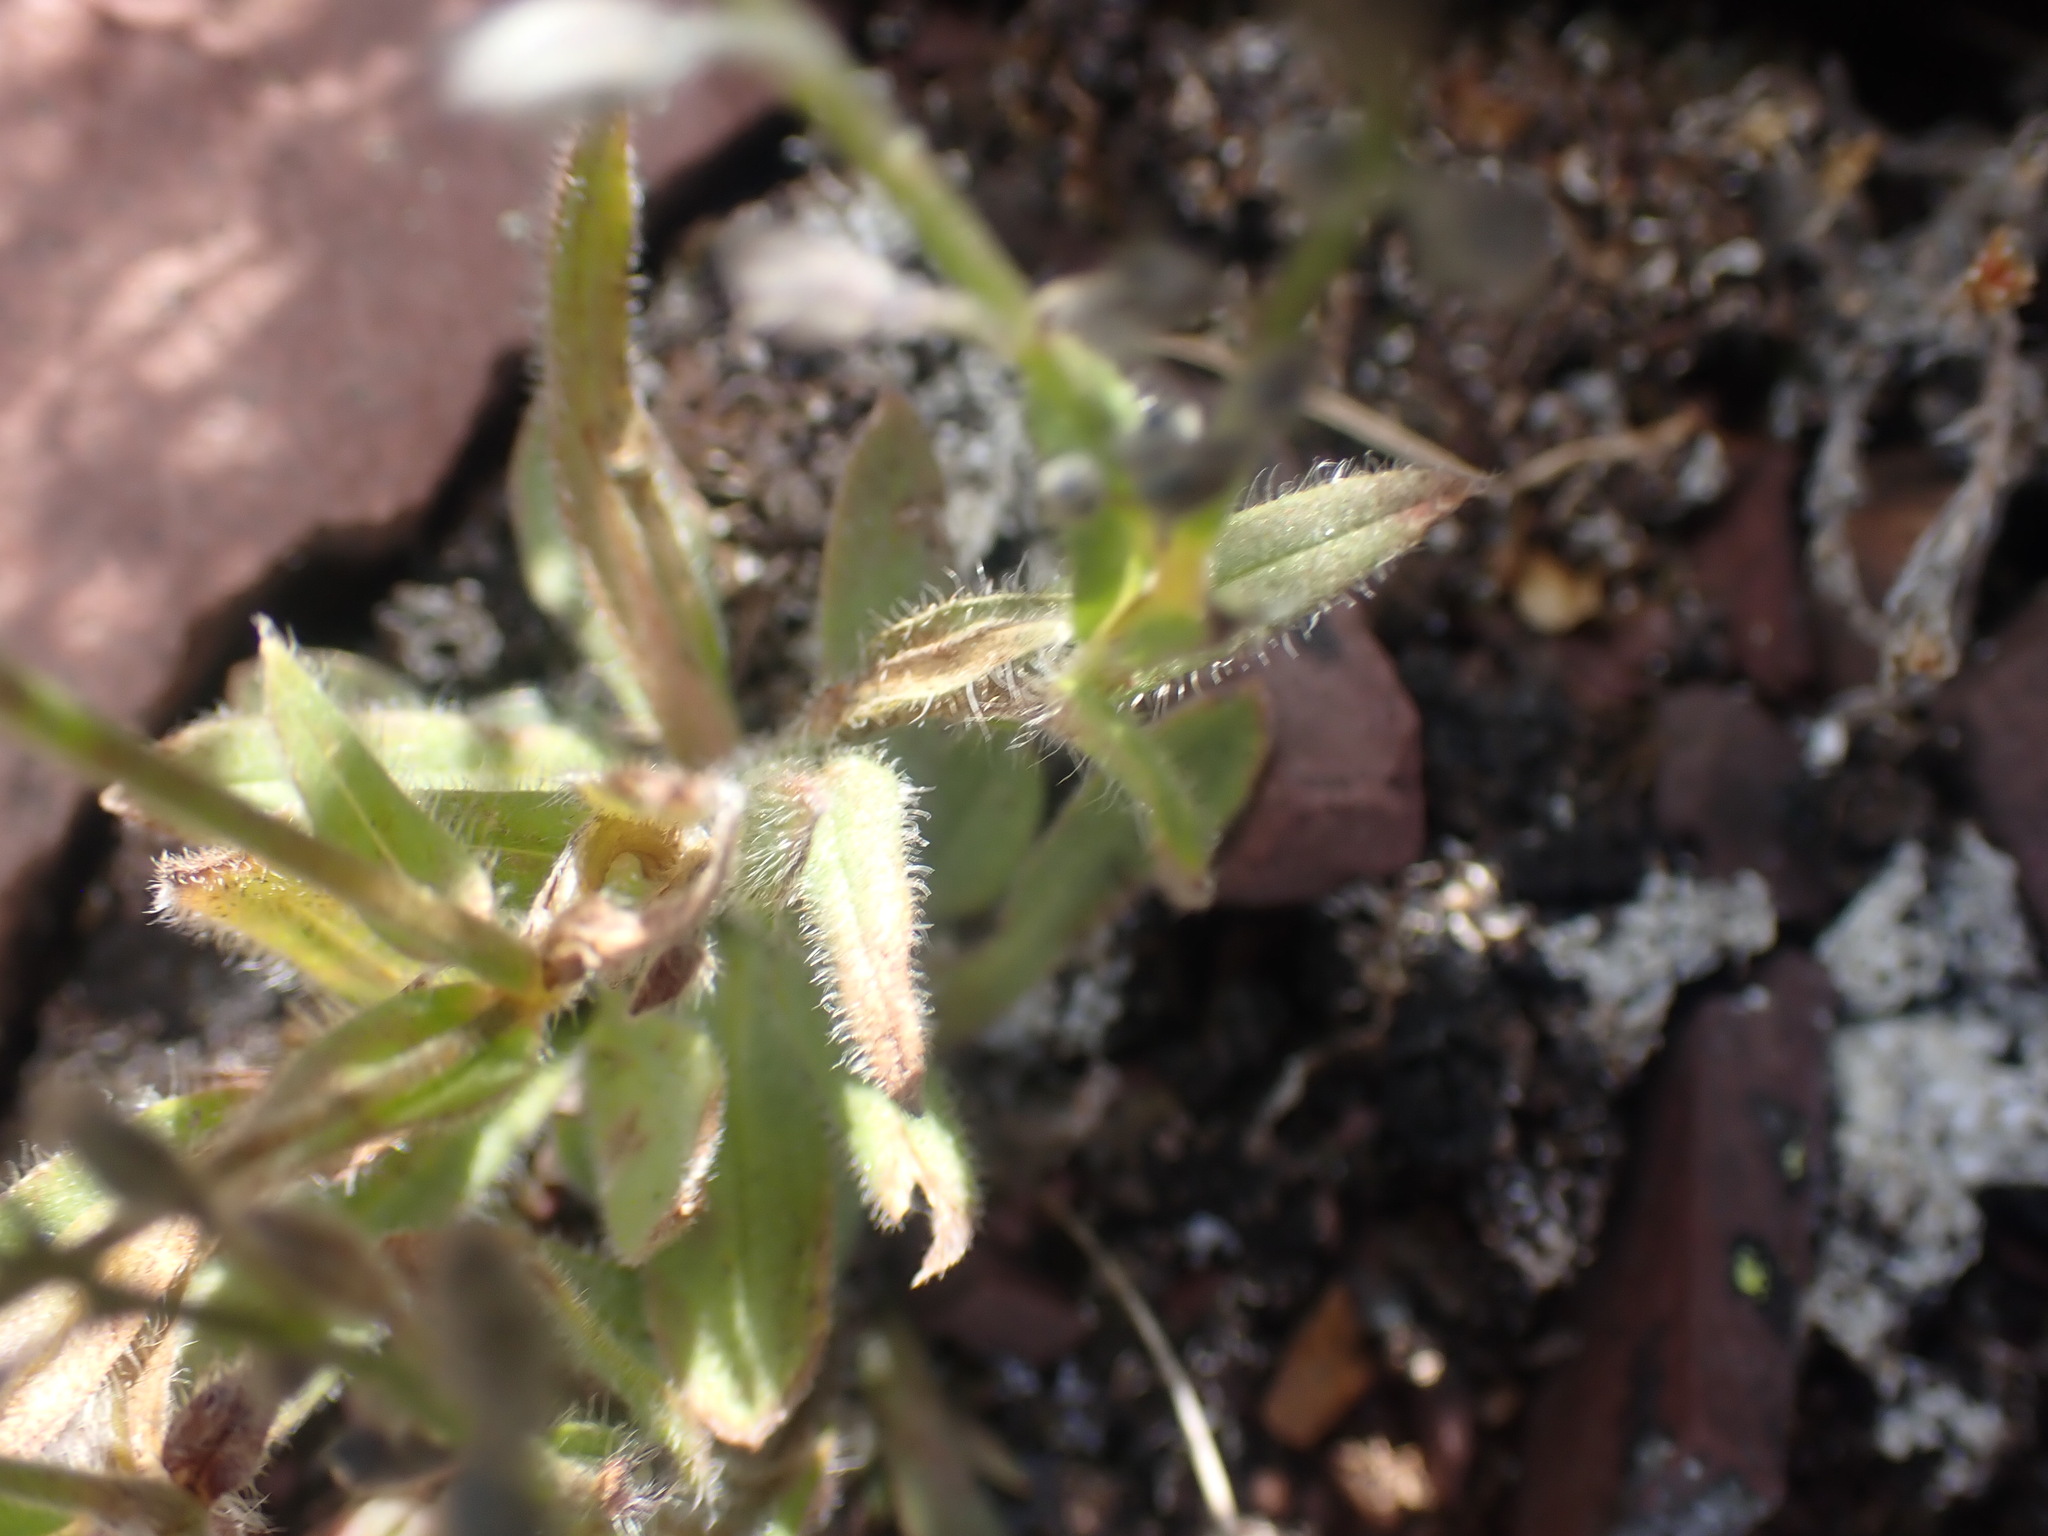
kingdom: Plantae
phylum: Tracheophyta
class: Magnoliopsida
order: Boraginales
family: Boraginaceae
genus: Myosotis
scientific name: Myosotis asiatica
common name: Asian forget-me-not
